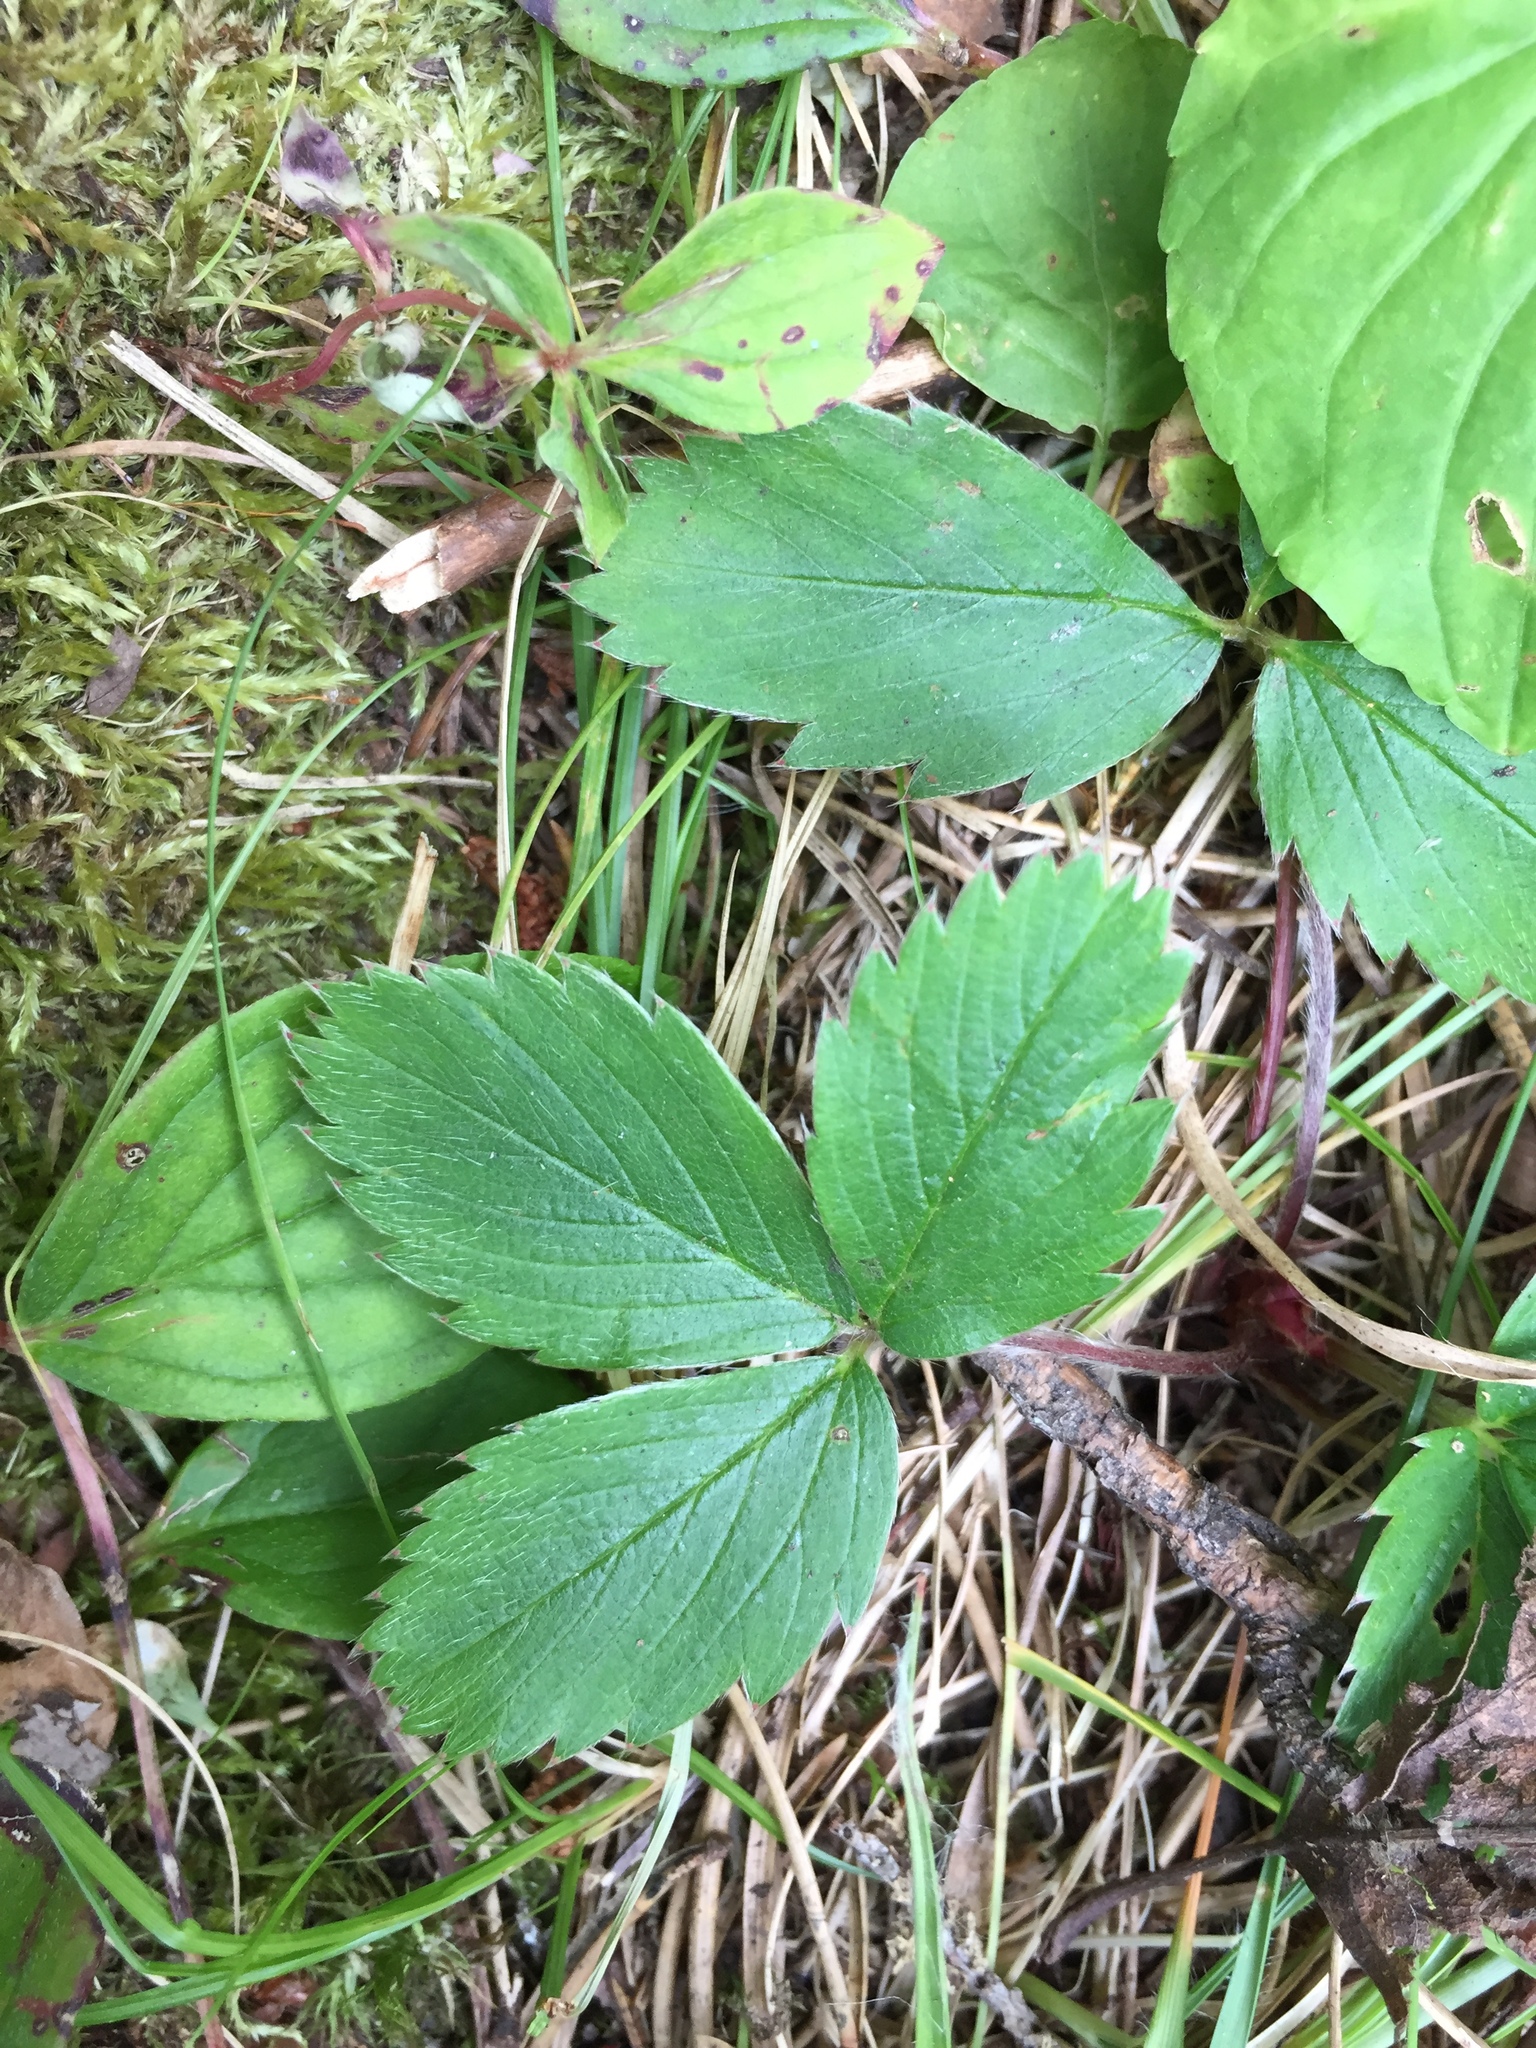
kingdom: Plantae
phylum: Tracheophyta
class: Magnoliopsida
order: Rosales
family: Rosaceae
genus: Fragaria
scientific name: Fragaria virginiana
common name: Thickleaved wild strawberry
